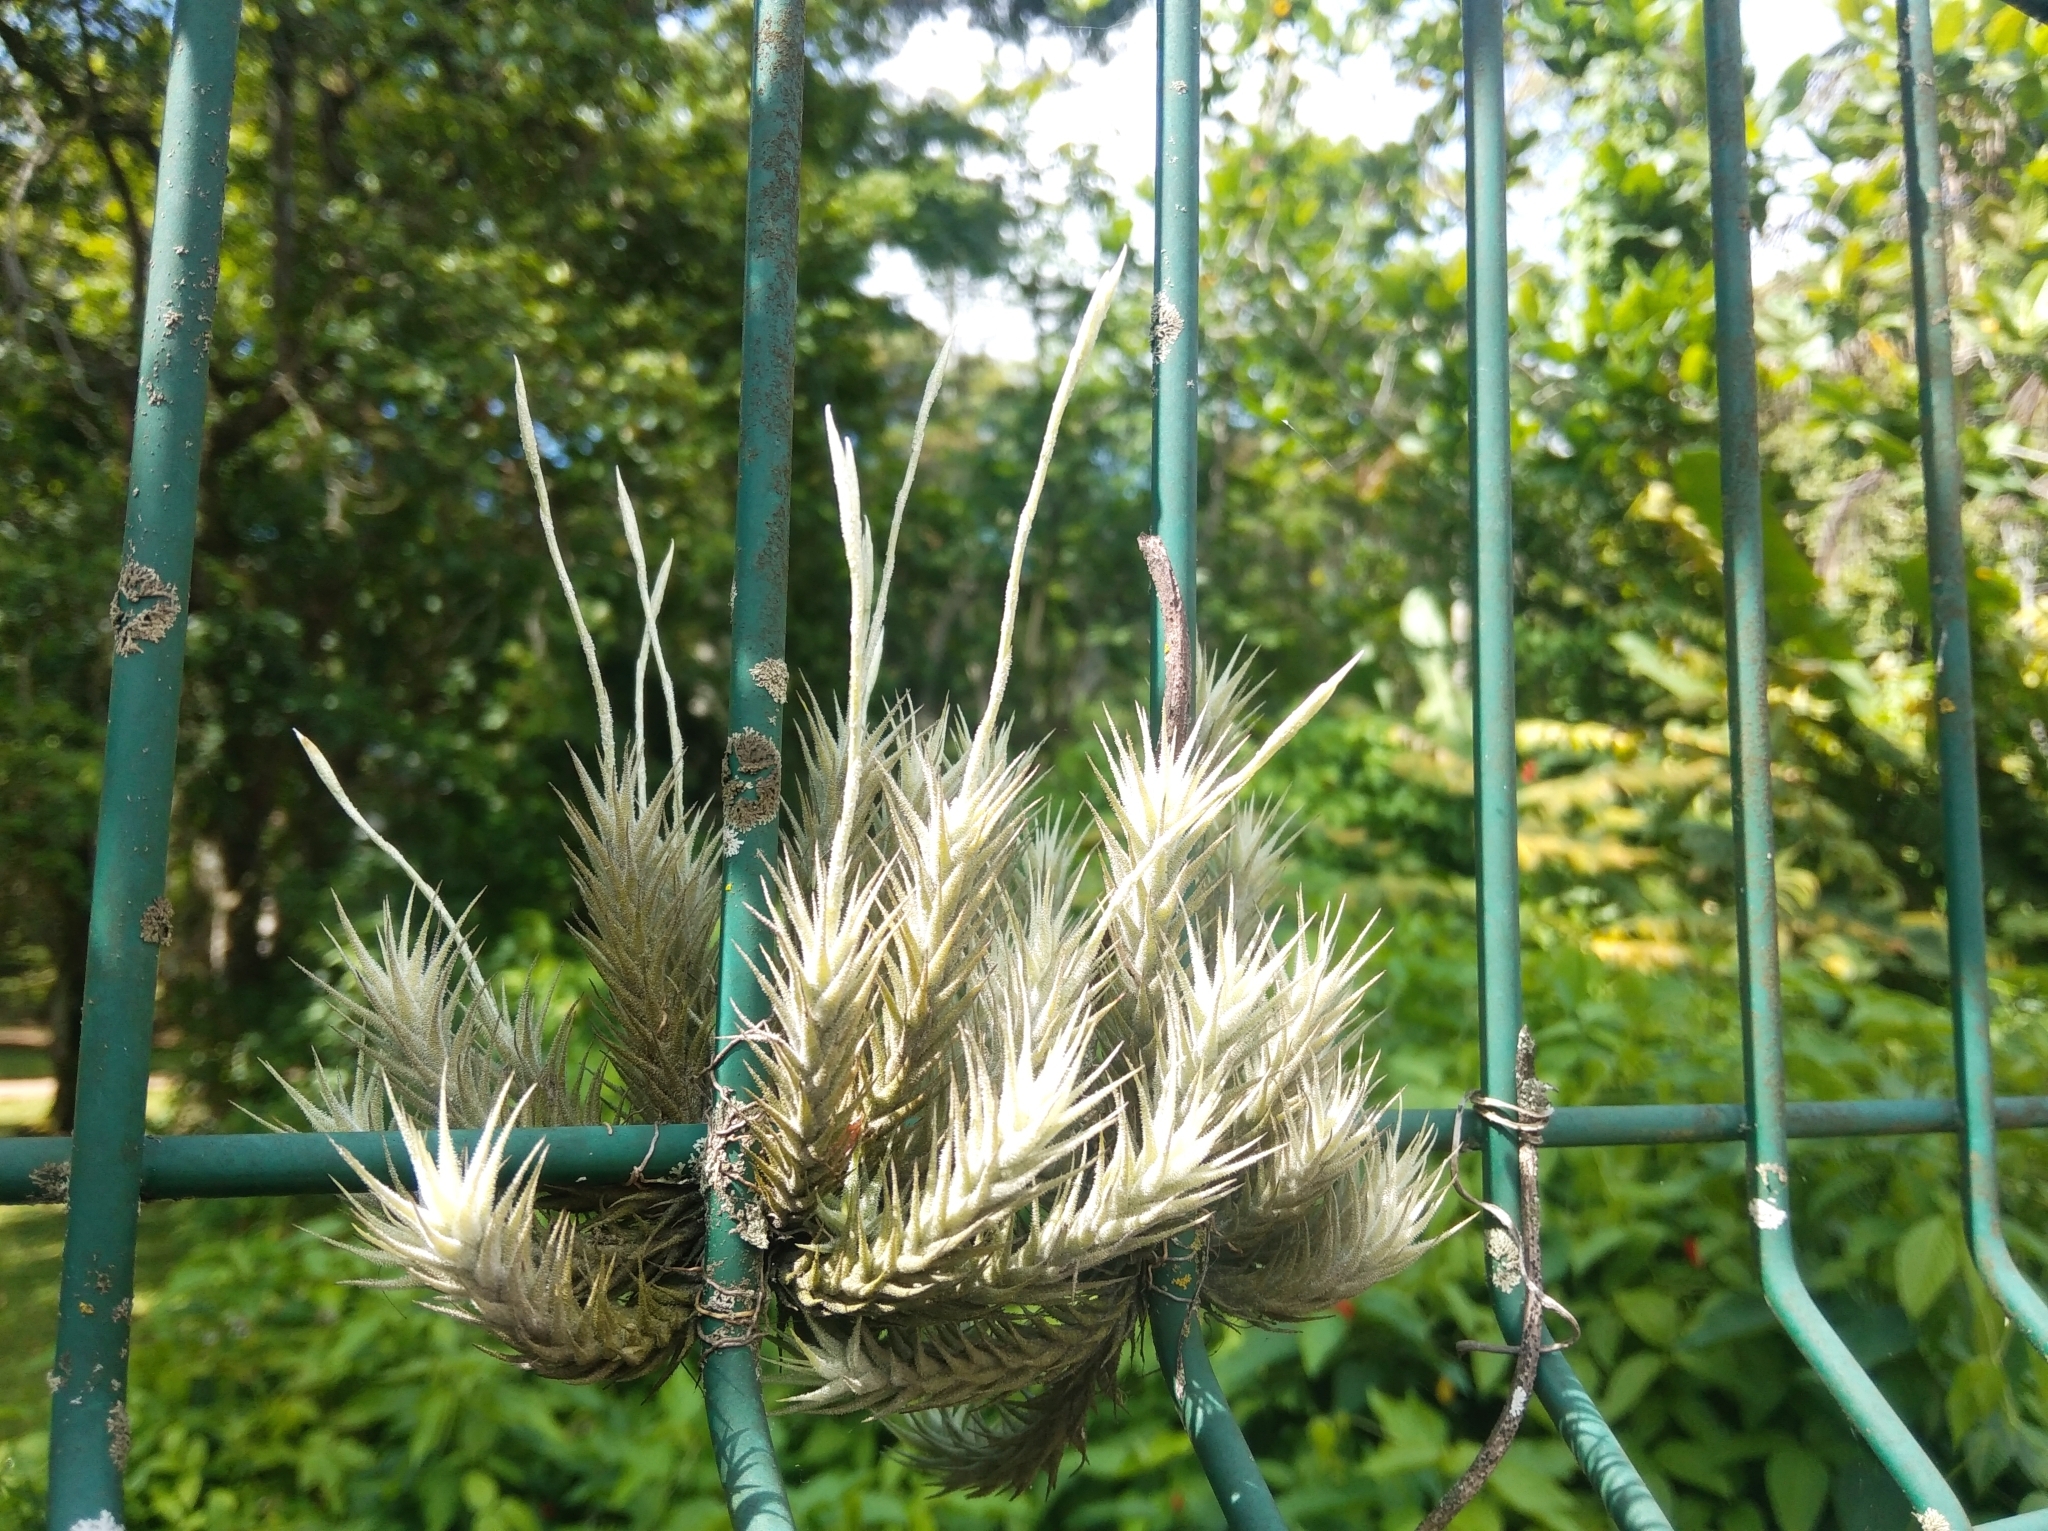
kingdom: Plantae
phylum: Tracheophyta
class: Liliopsida
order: Poales
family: Bromeliaceae
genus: Tillandsia
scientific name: Tillandsia tricholepis
